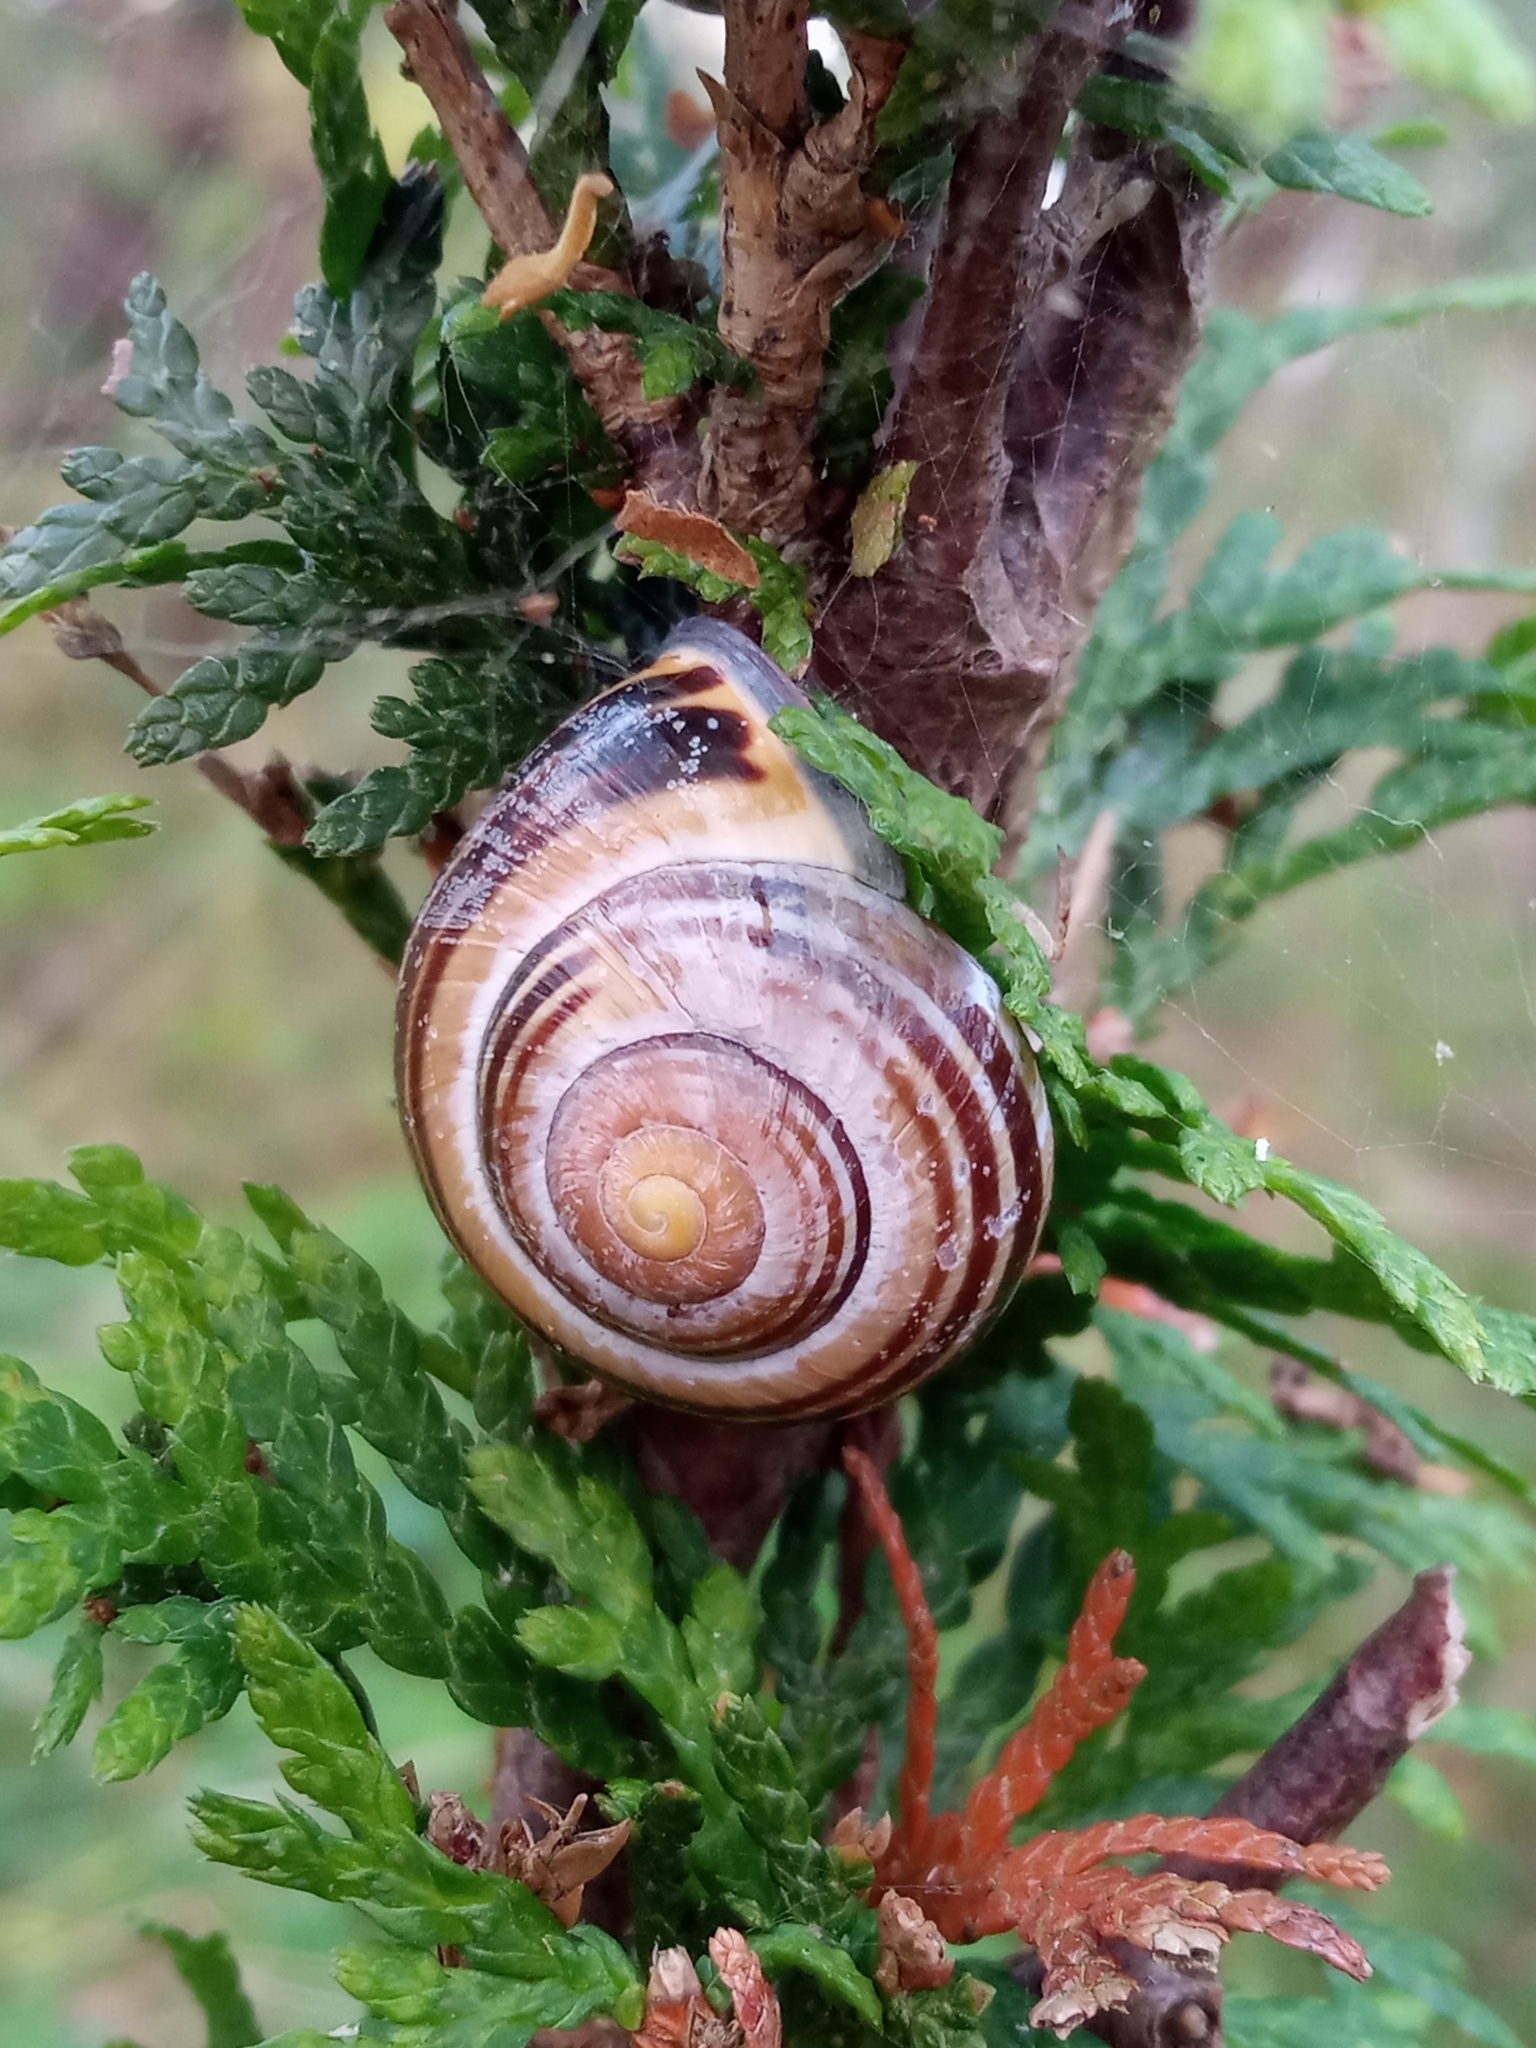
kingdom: Animalia
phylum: Mollusca
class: Gastropoda
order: Stylommatophora
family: Helicidae
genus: Cepaea
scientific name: Cepaea nemoralis
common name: Grovesnail
